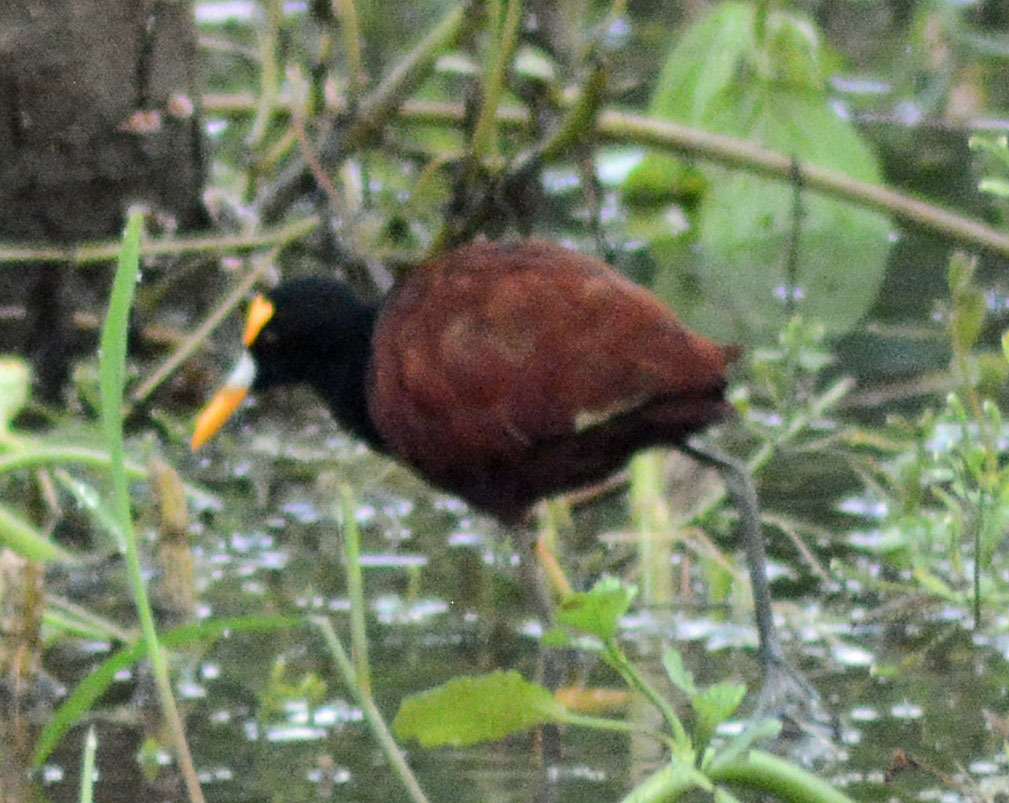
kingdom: Animalia
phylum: Chordata
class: Aves
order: Charadriiformes
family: Jacanidae
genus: Jacana
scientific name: Jacana spinosa
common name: Northern jacana
